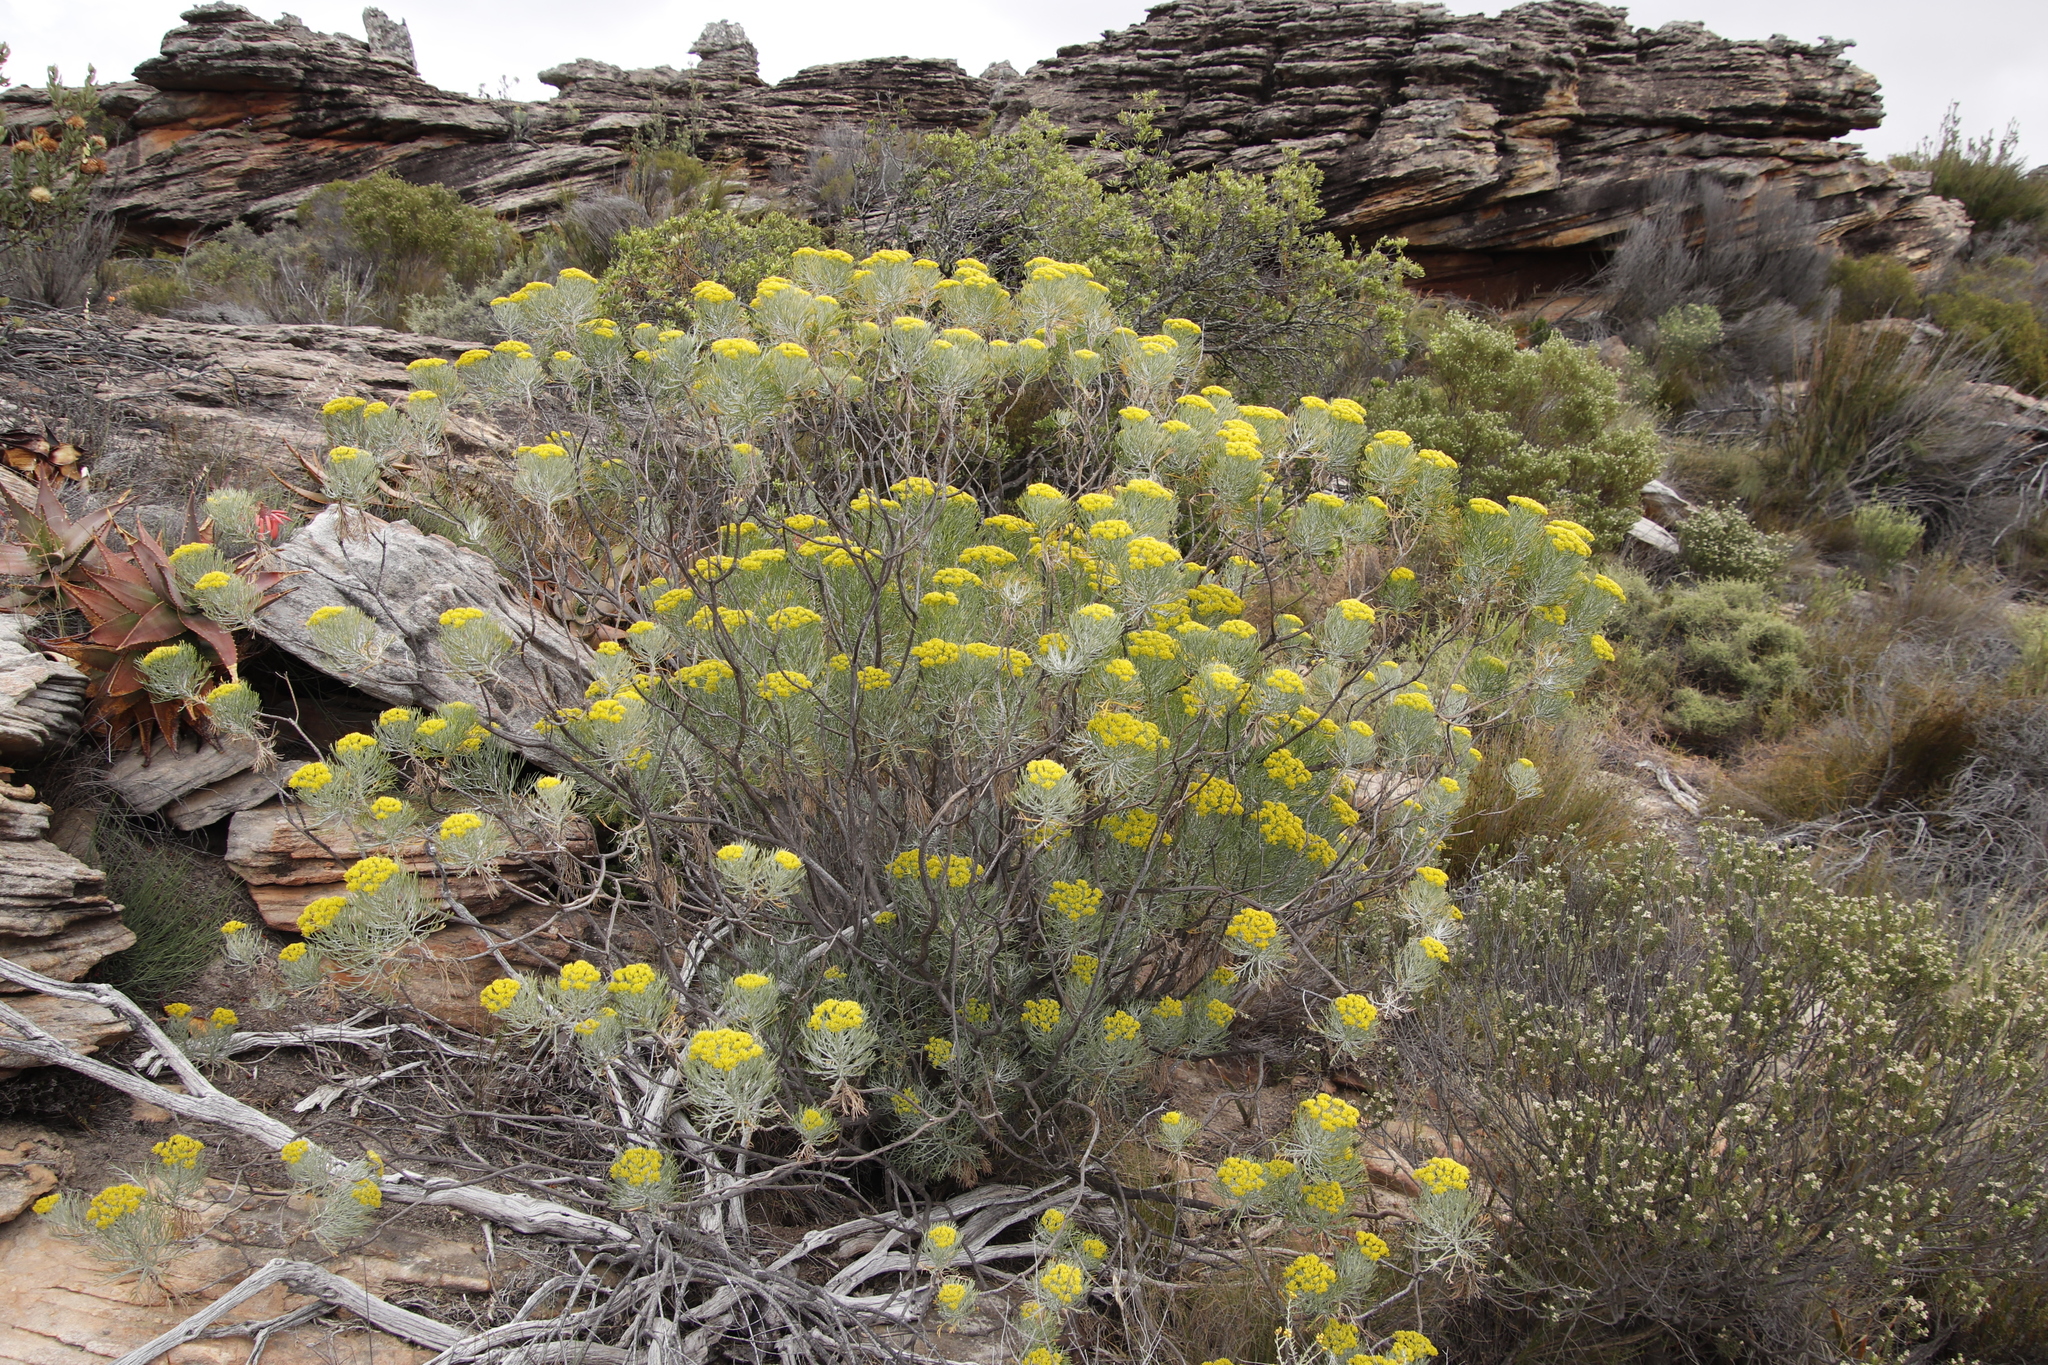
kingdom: Plantae
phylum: Tracheophyta
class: Magnoliopsida
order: Asterales
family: Asteraceae
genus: Hymenolepis
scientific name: Hymenolepis crithmifolia
